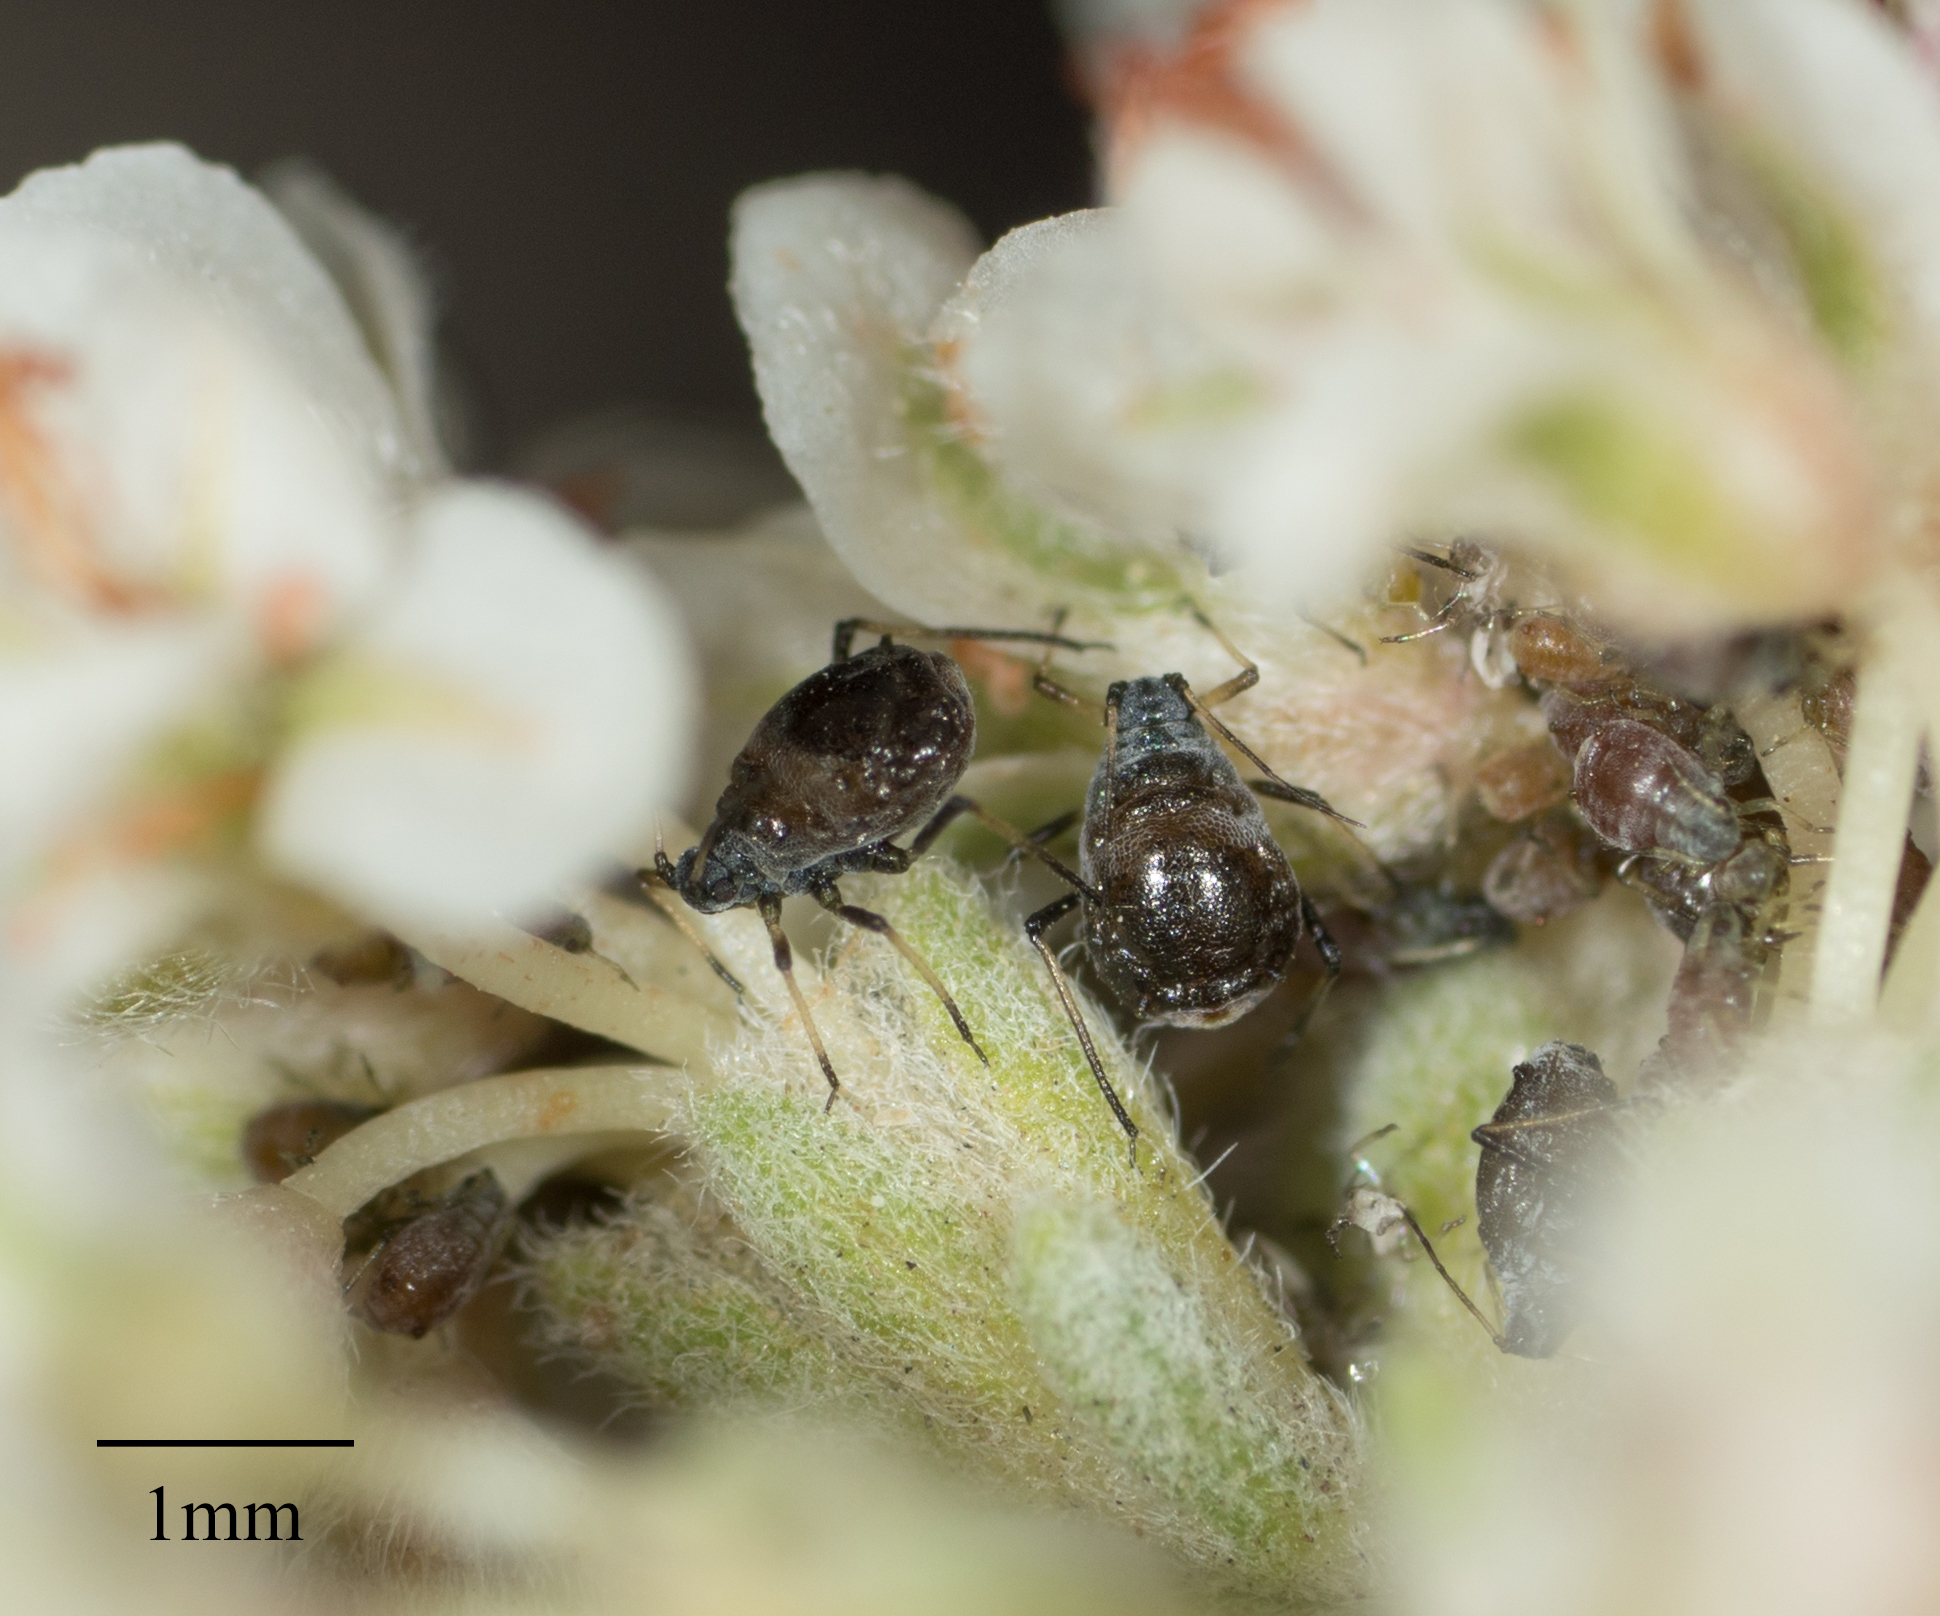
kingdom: Animalia
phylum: Arthropoda
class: Insecta
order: Hemiptera
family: Aphididae
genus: Braggia
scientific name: Braggia deserticola
